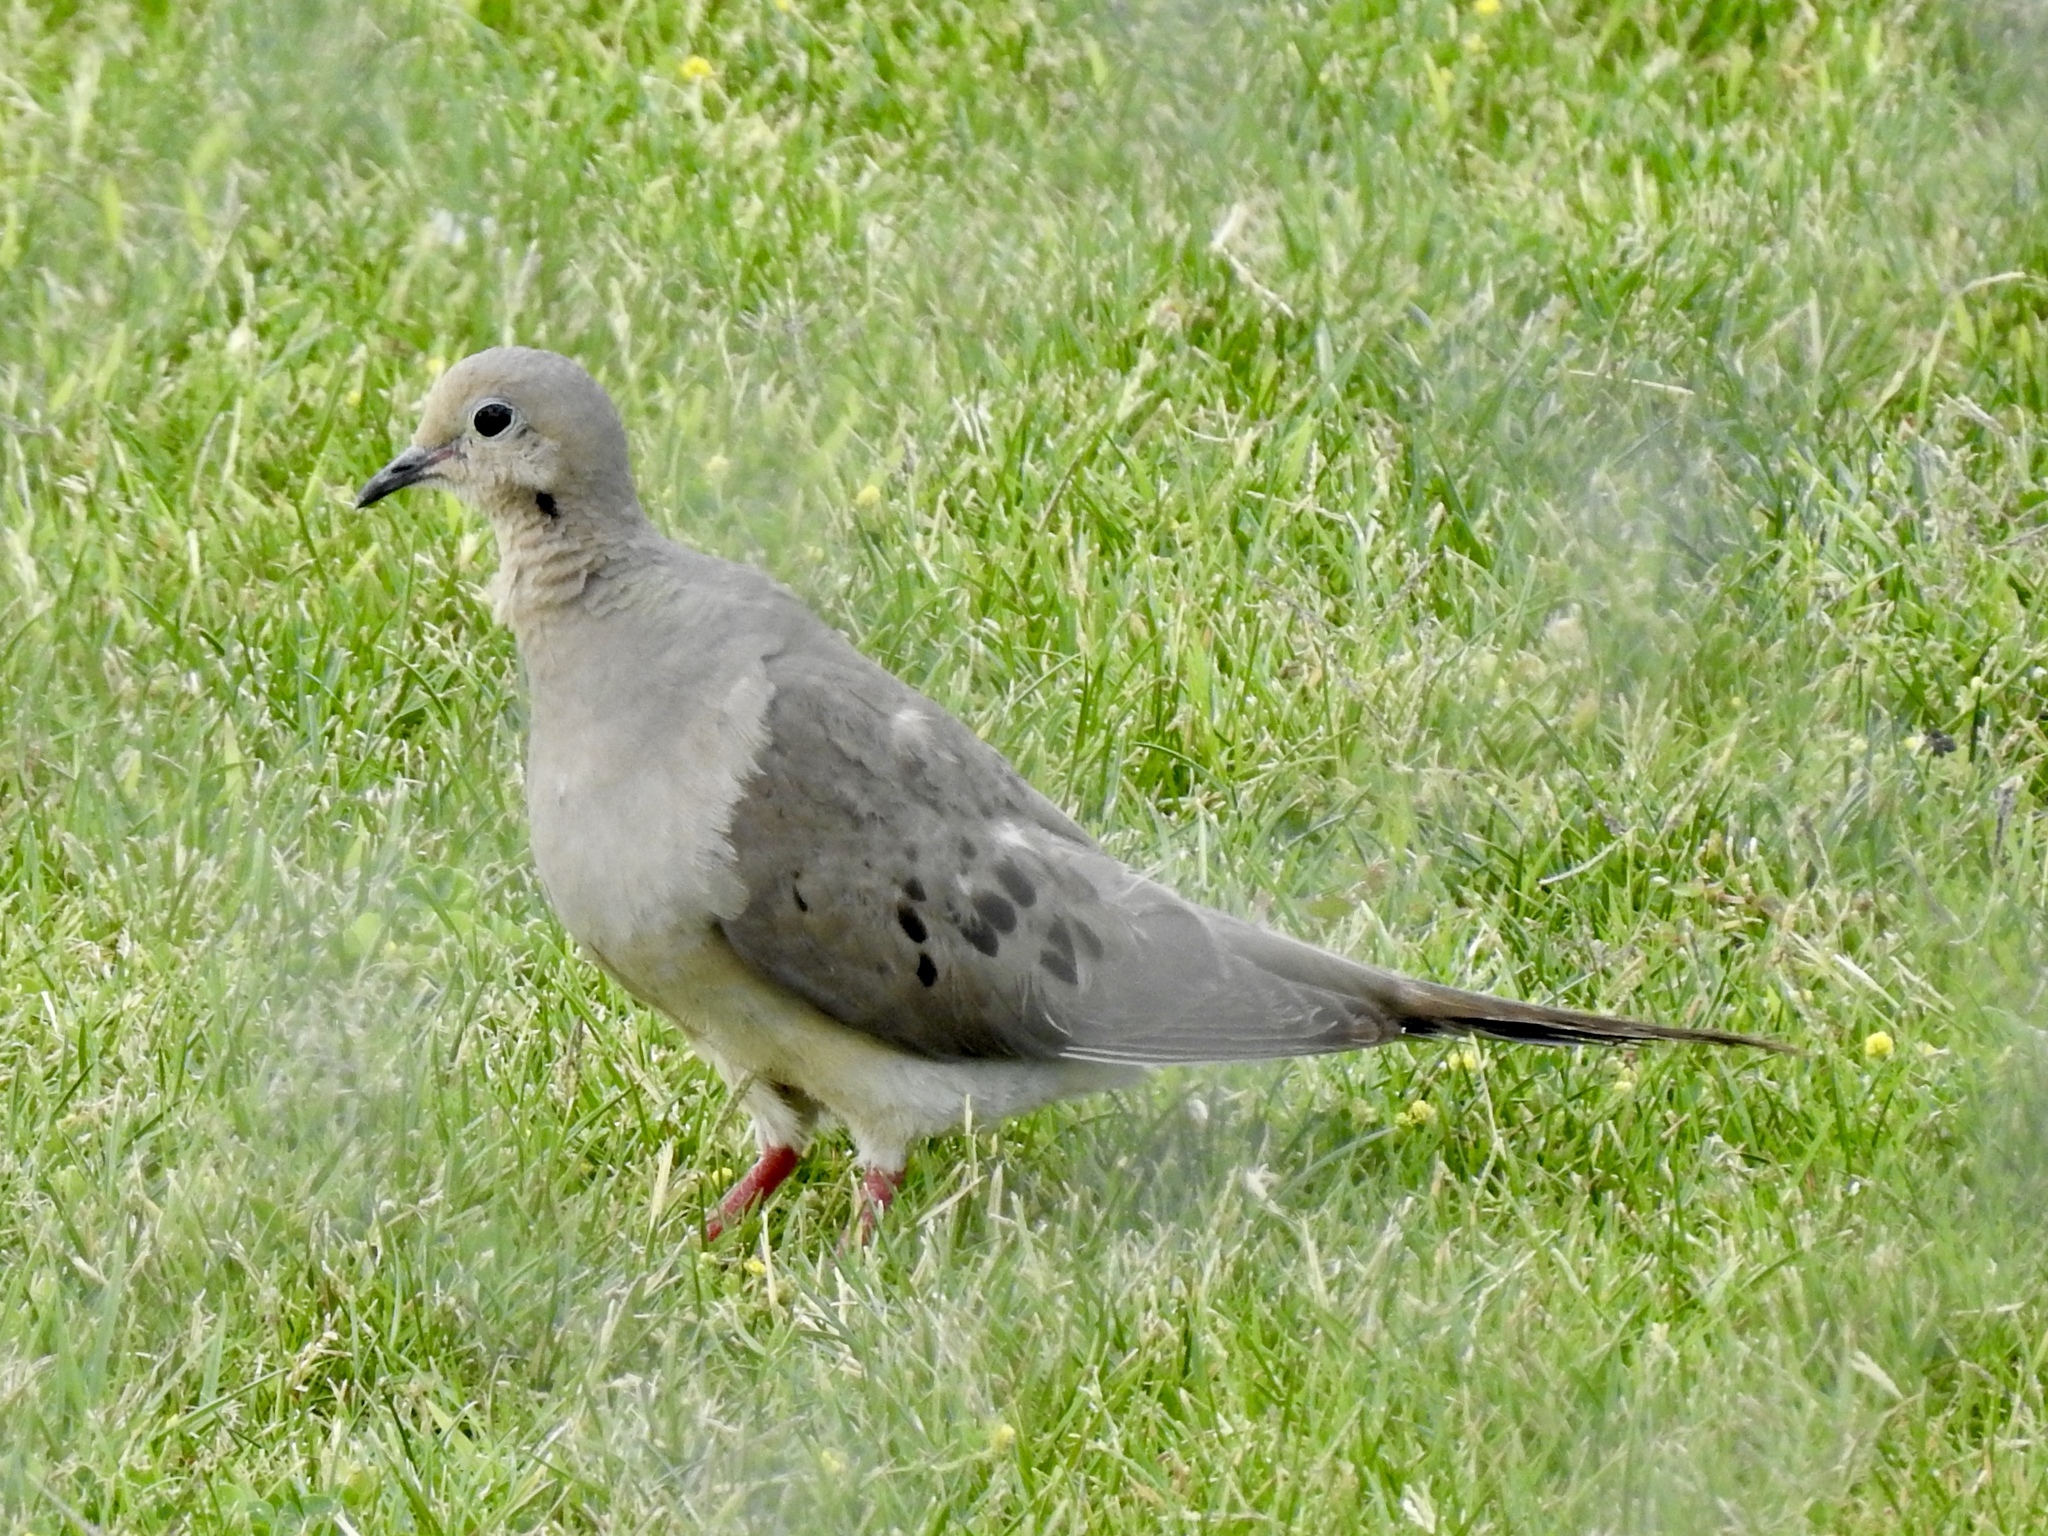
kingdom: Animalia
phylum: Chordata
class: Aves
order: Columbiformes
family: Columbidae
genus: Zenaida
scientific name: Zenaida macroura
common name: Mourning dove
